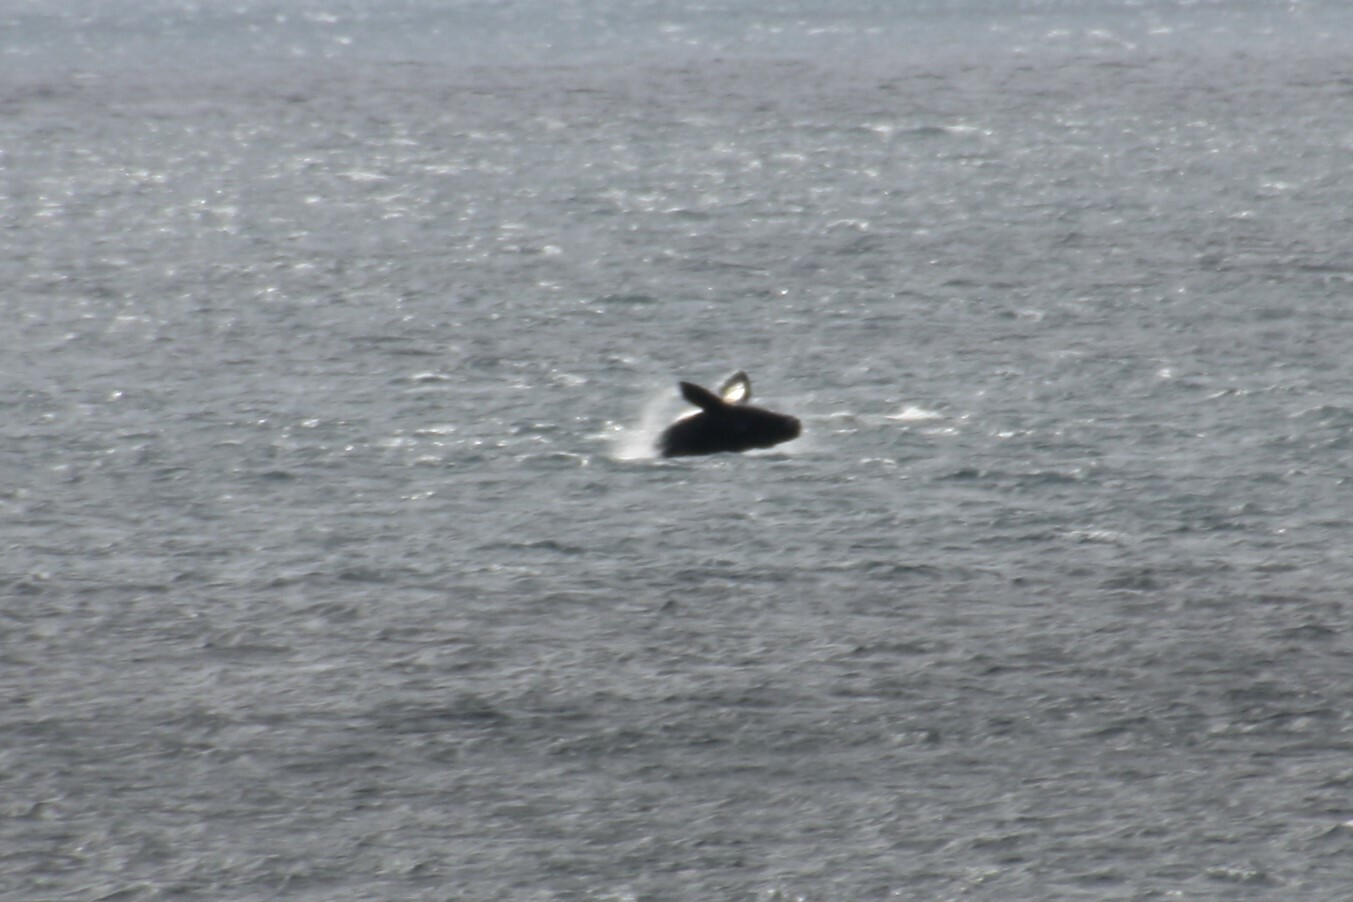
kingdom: Animalia
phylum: Chordata
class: Mammalia
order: Cetacea
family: Balaenidae
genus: Eubalaena
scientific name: Eubalaena australis
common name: Southern right whale
